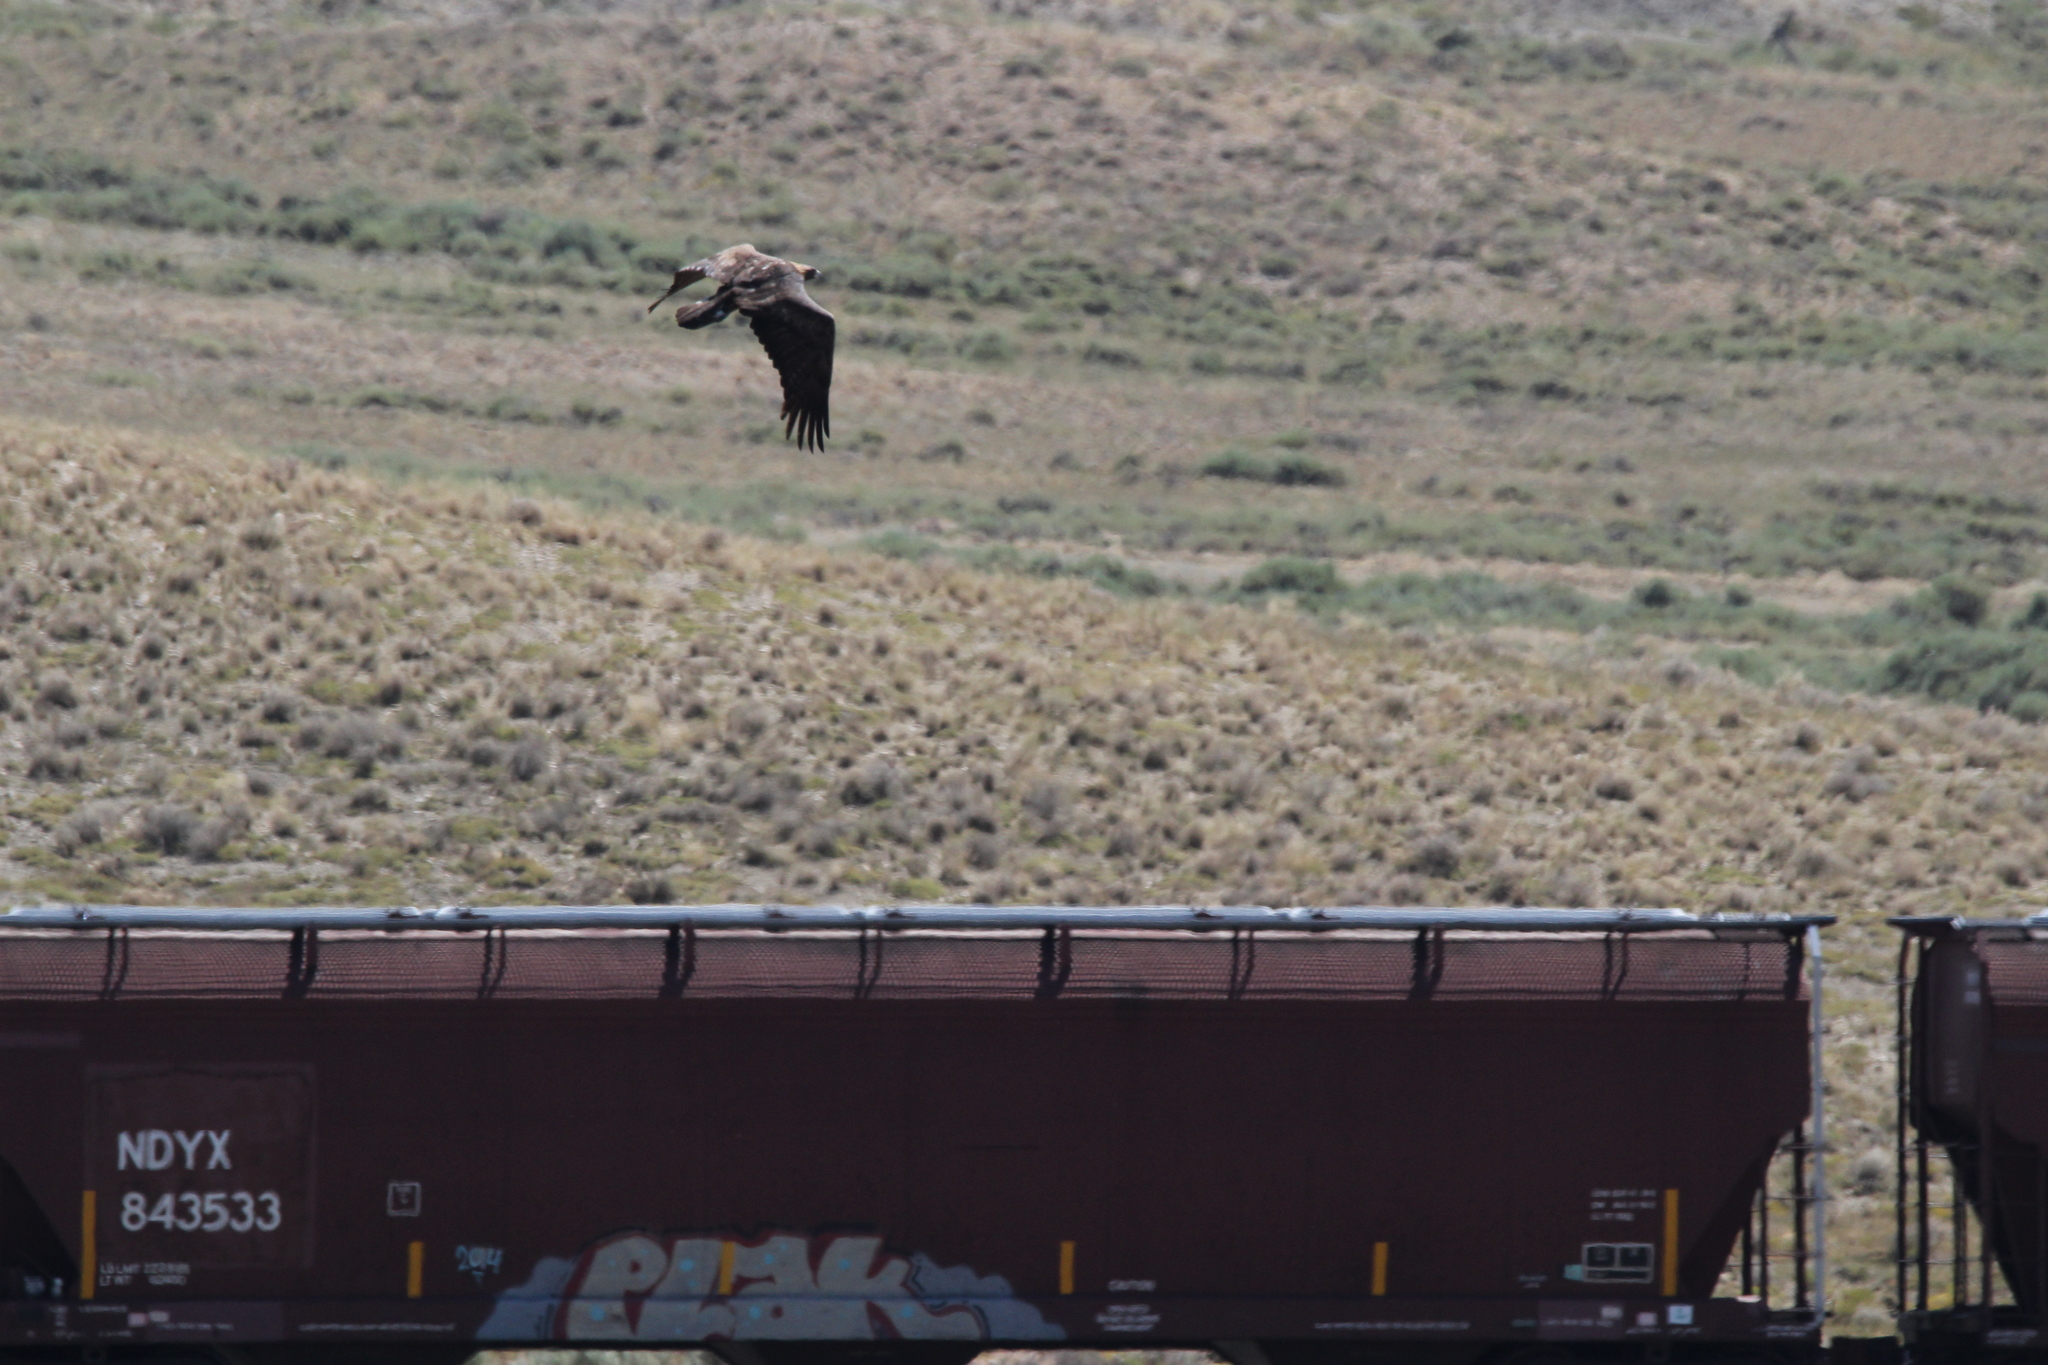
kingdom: Animalia
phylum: Chordata
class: Aves
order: Accipitriformes
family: Accipitridae
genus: Aquila
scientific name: Aquila chrysaetos
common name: Golden eagle
